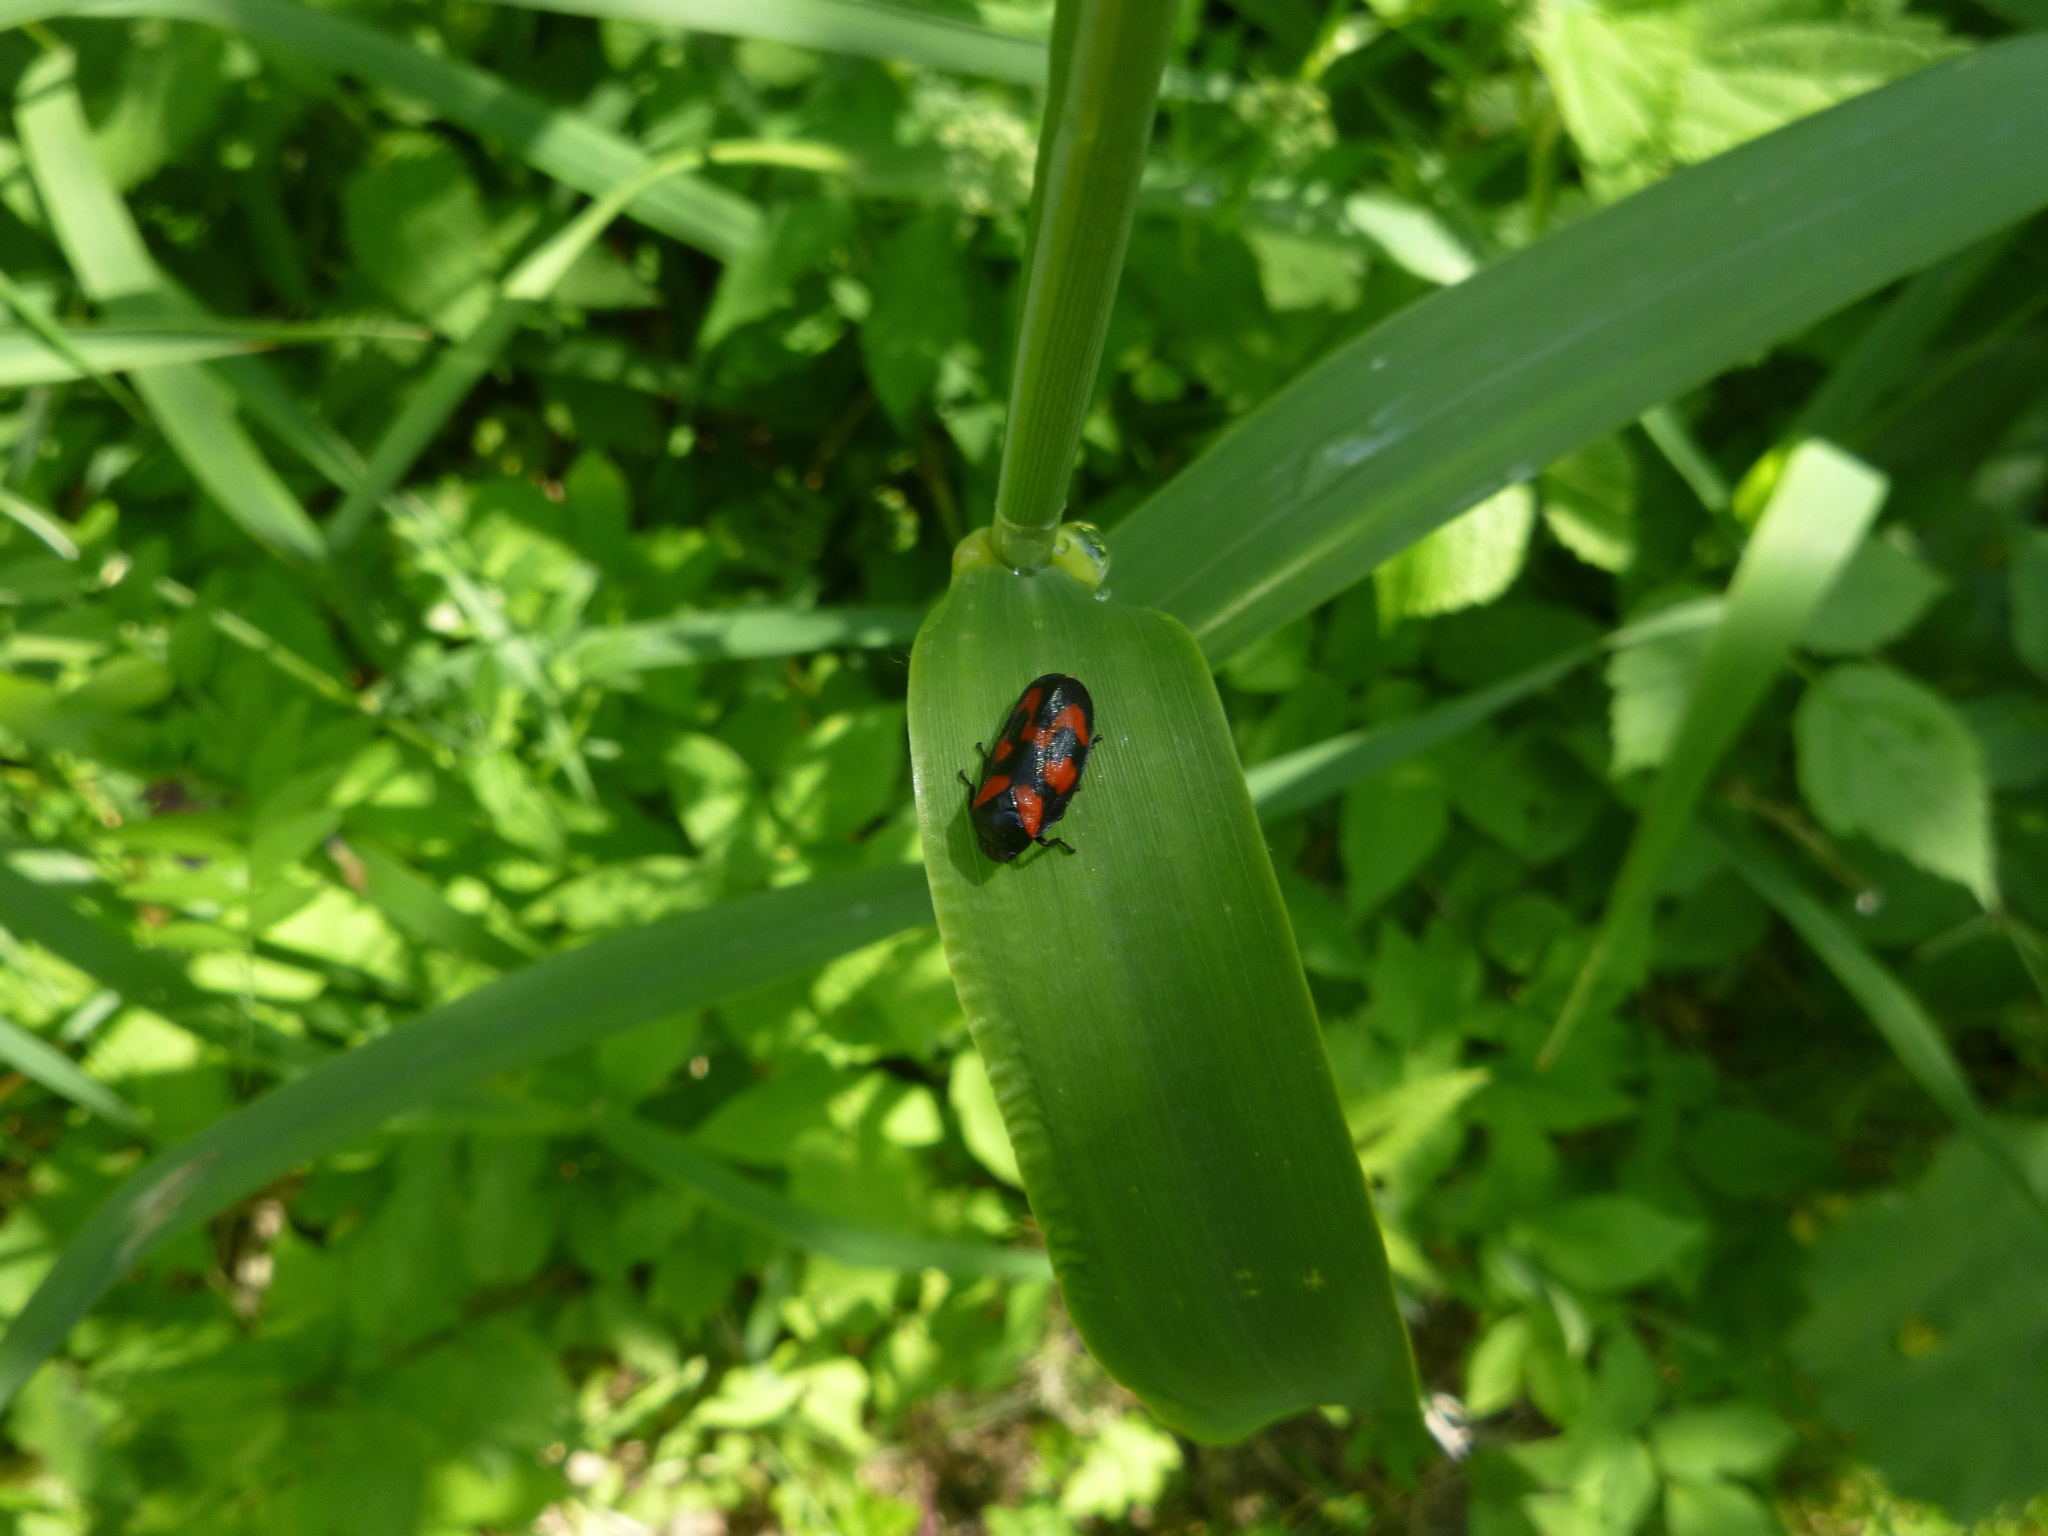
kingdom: Animalia
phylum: Arthropoda
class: Insecta
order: Hemiptera
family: Cercopidae
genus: Cercopis
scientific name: Cercopis vulnerata
